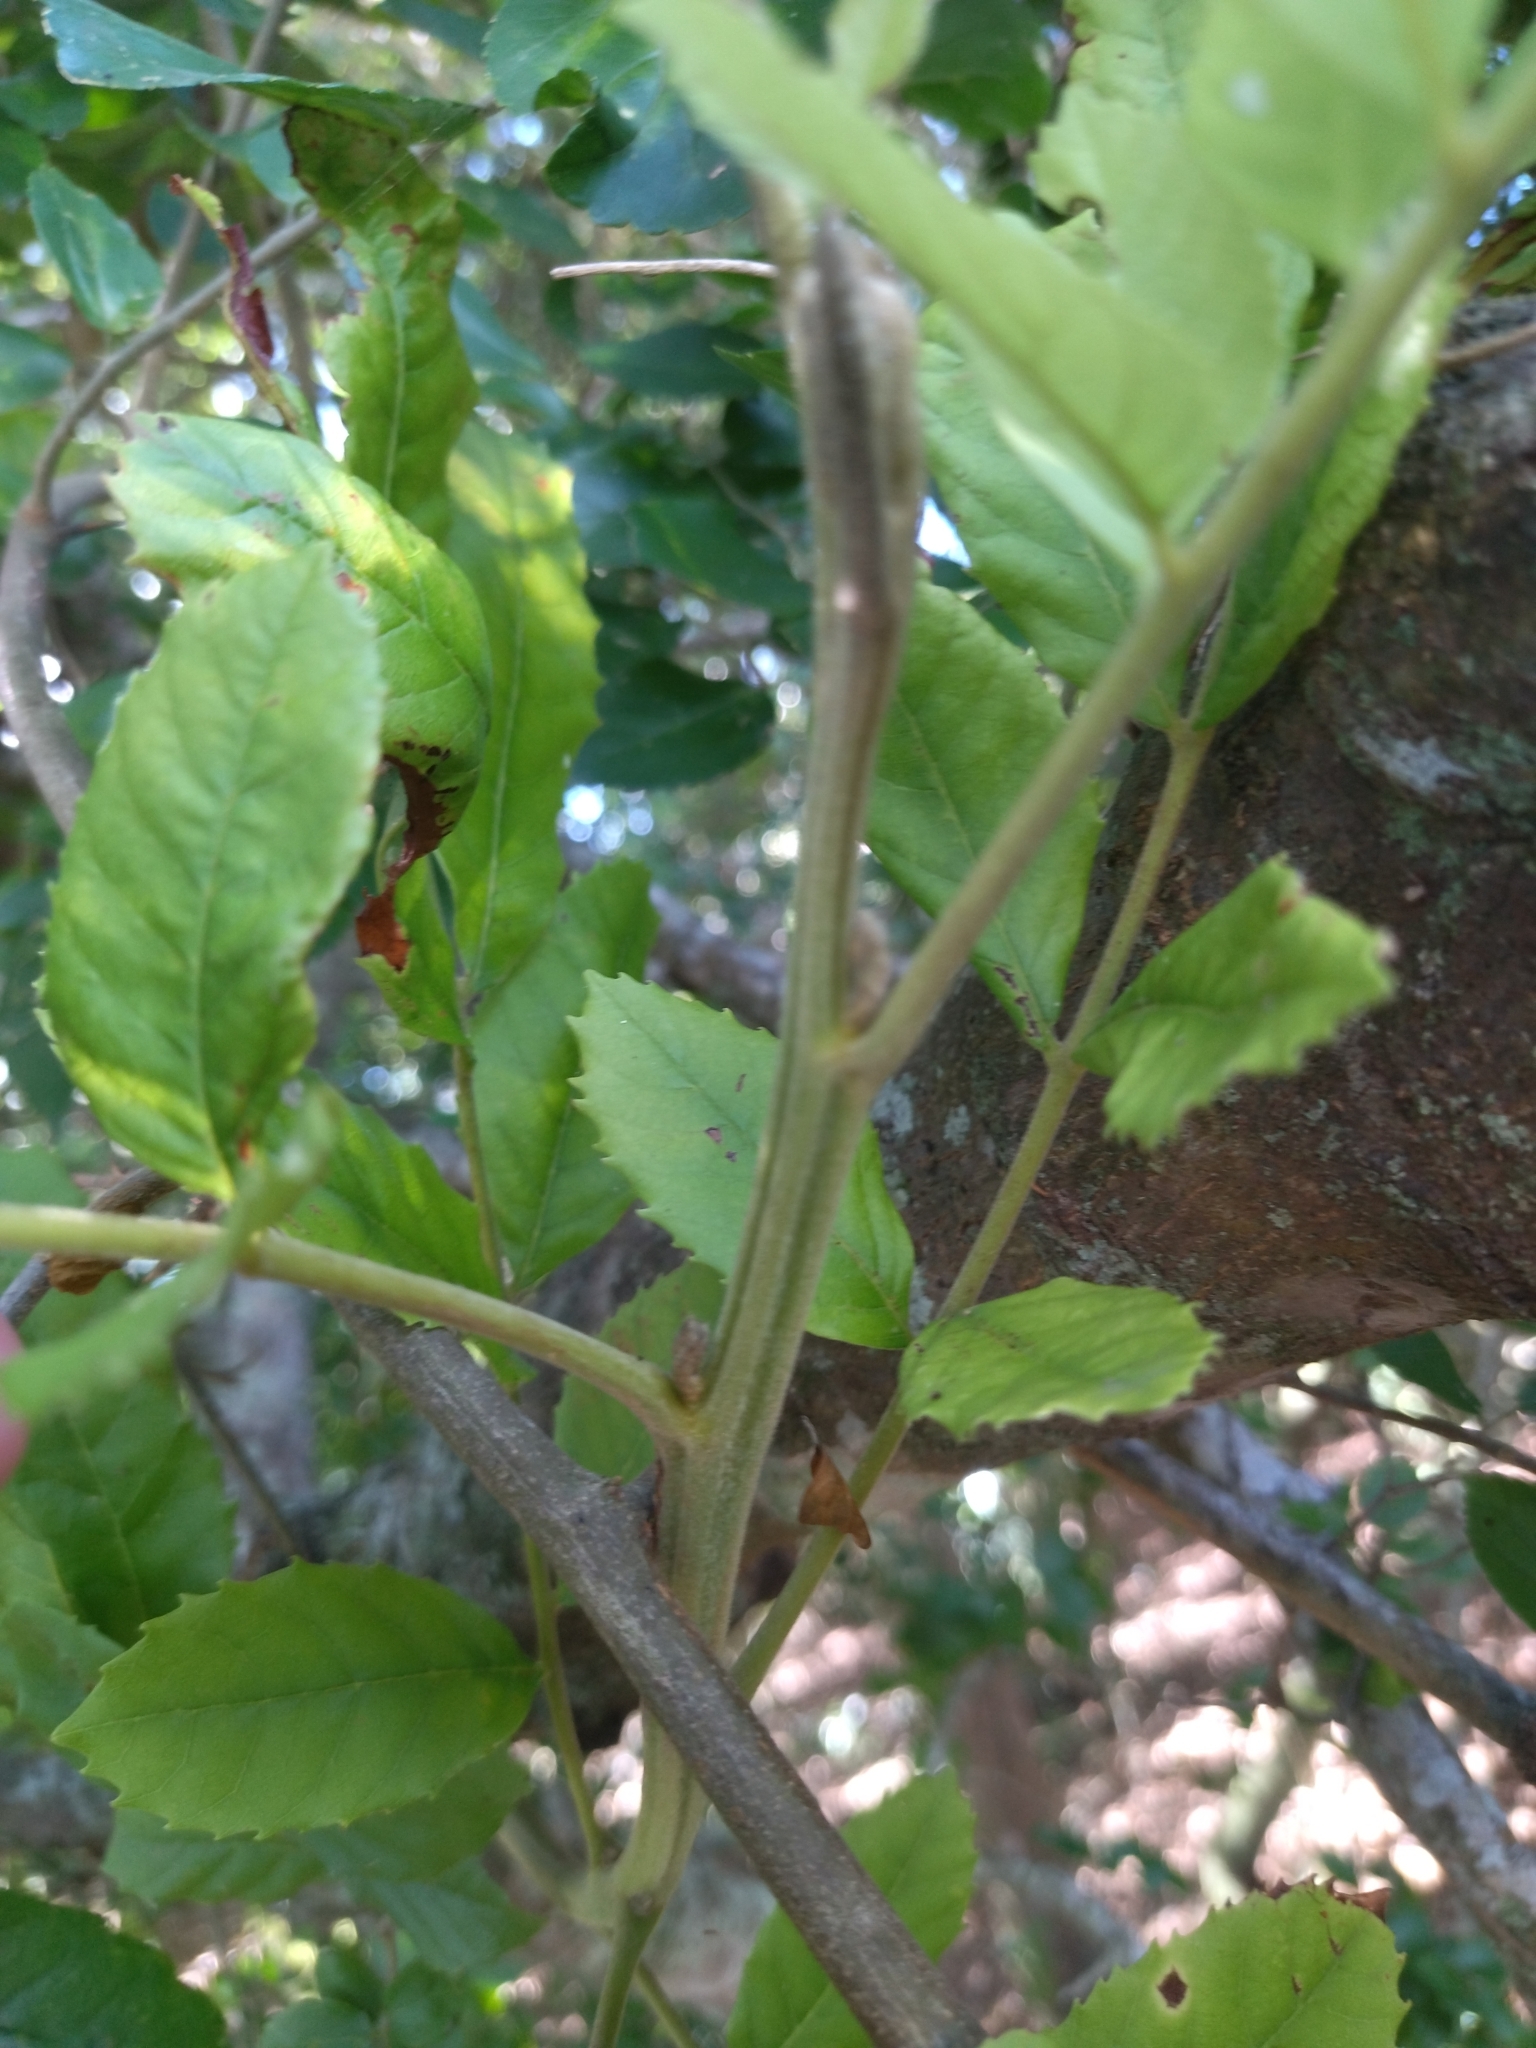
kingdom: Plantae
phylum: Tracheophyta
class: Magnoliopsida
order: Sapindales
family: Sapindaceae
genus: Cupania
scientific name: Cupania vernalis
